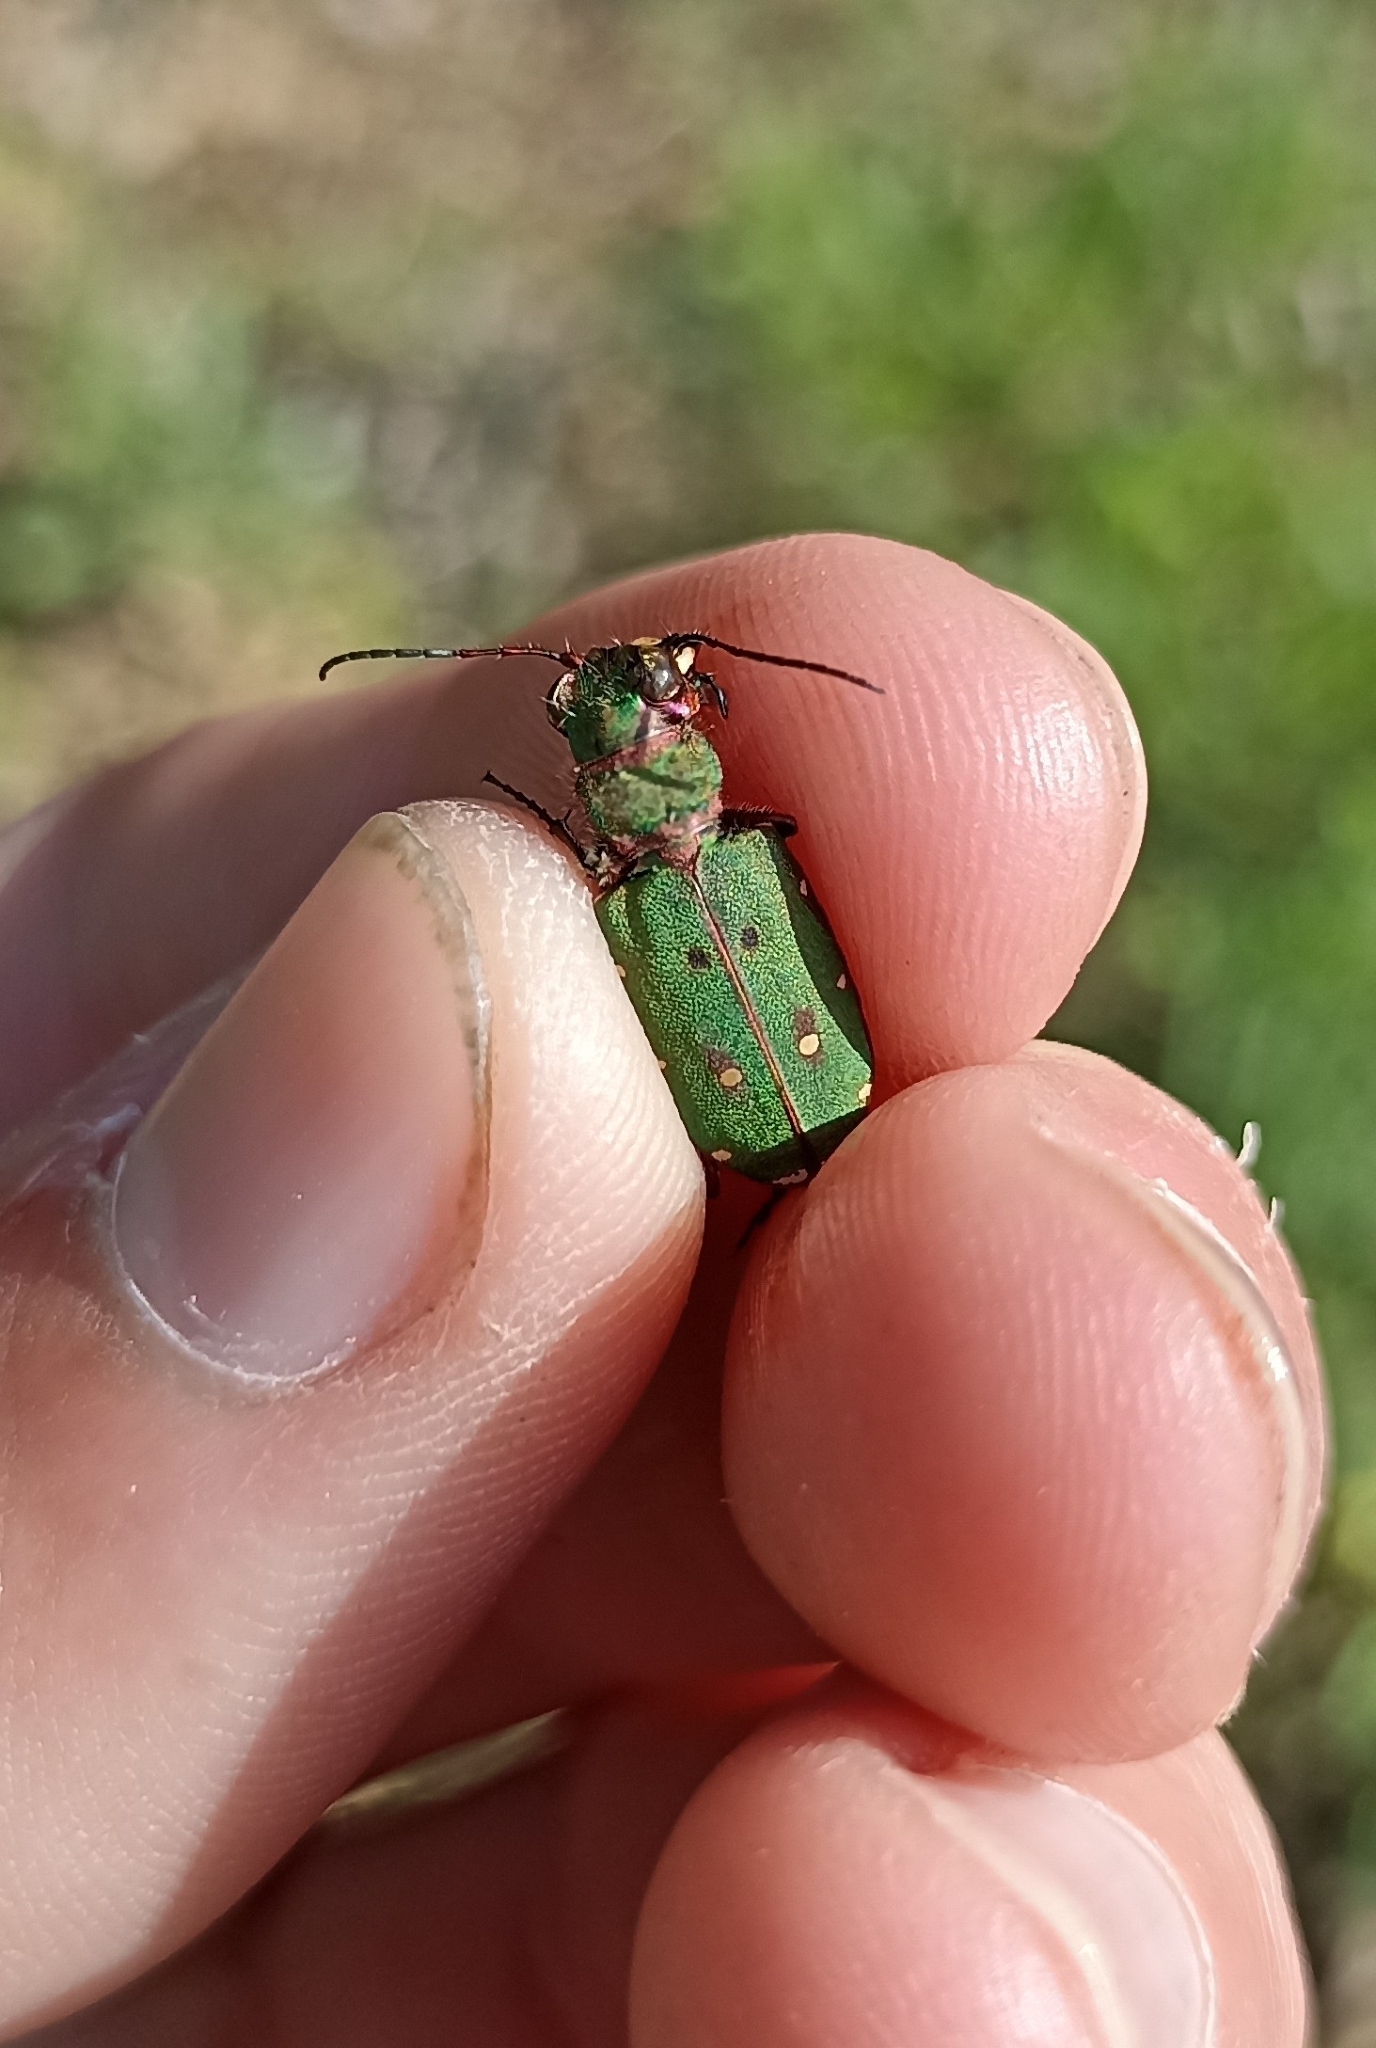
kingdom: Animalia
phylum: Arthropoda
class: Insecta
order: Coleoptera
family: Carabidae
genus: Cicindela
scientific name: Cicindela campestris
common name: Common tiger beetle
